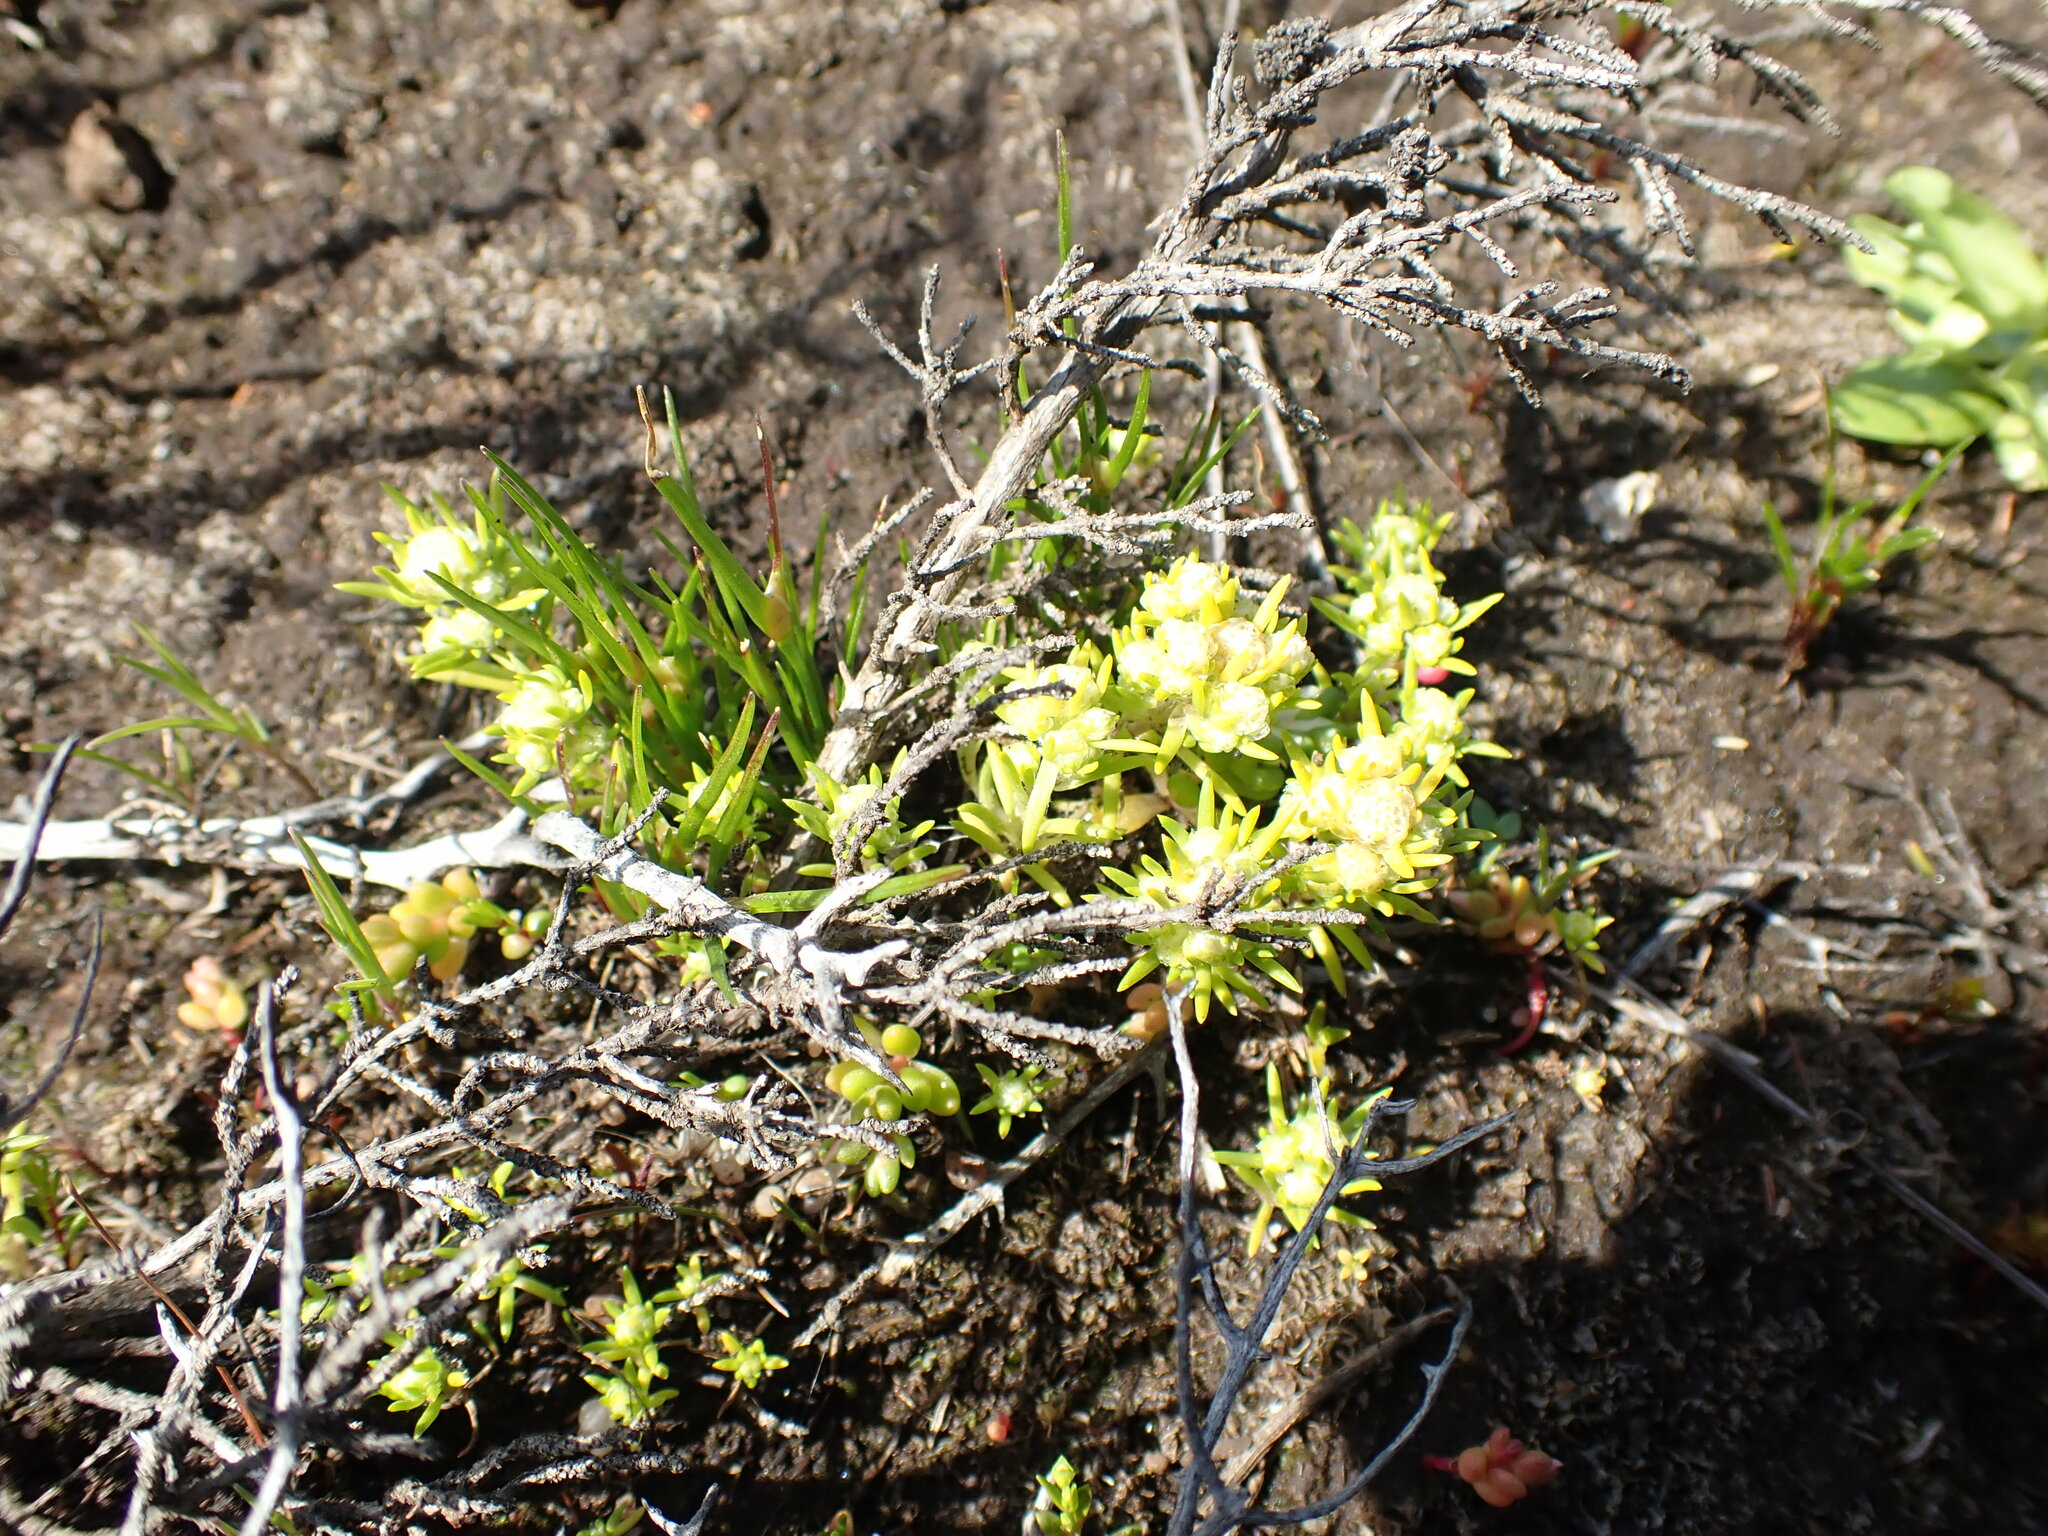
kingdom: Plantae
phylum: Tracheophyta
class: Magnoliopsida
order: Asterales
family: Asteraceae
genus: Siloxerus
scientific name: Siloxerus multiflorus
